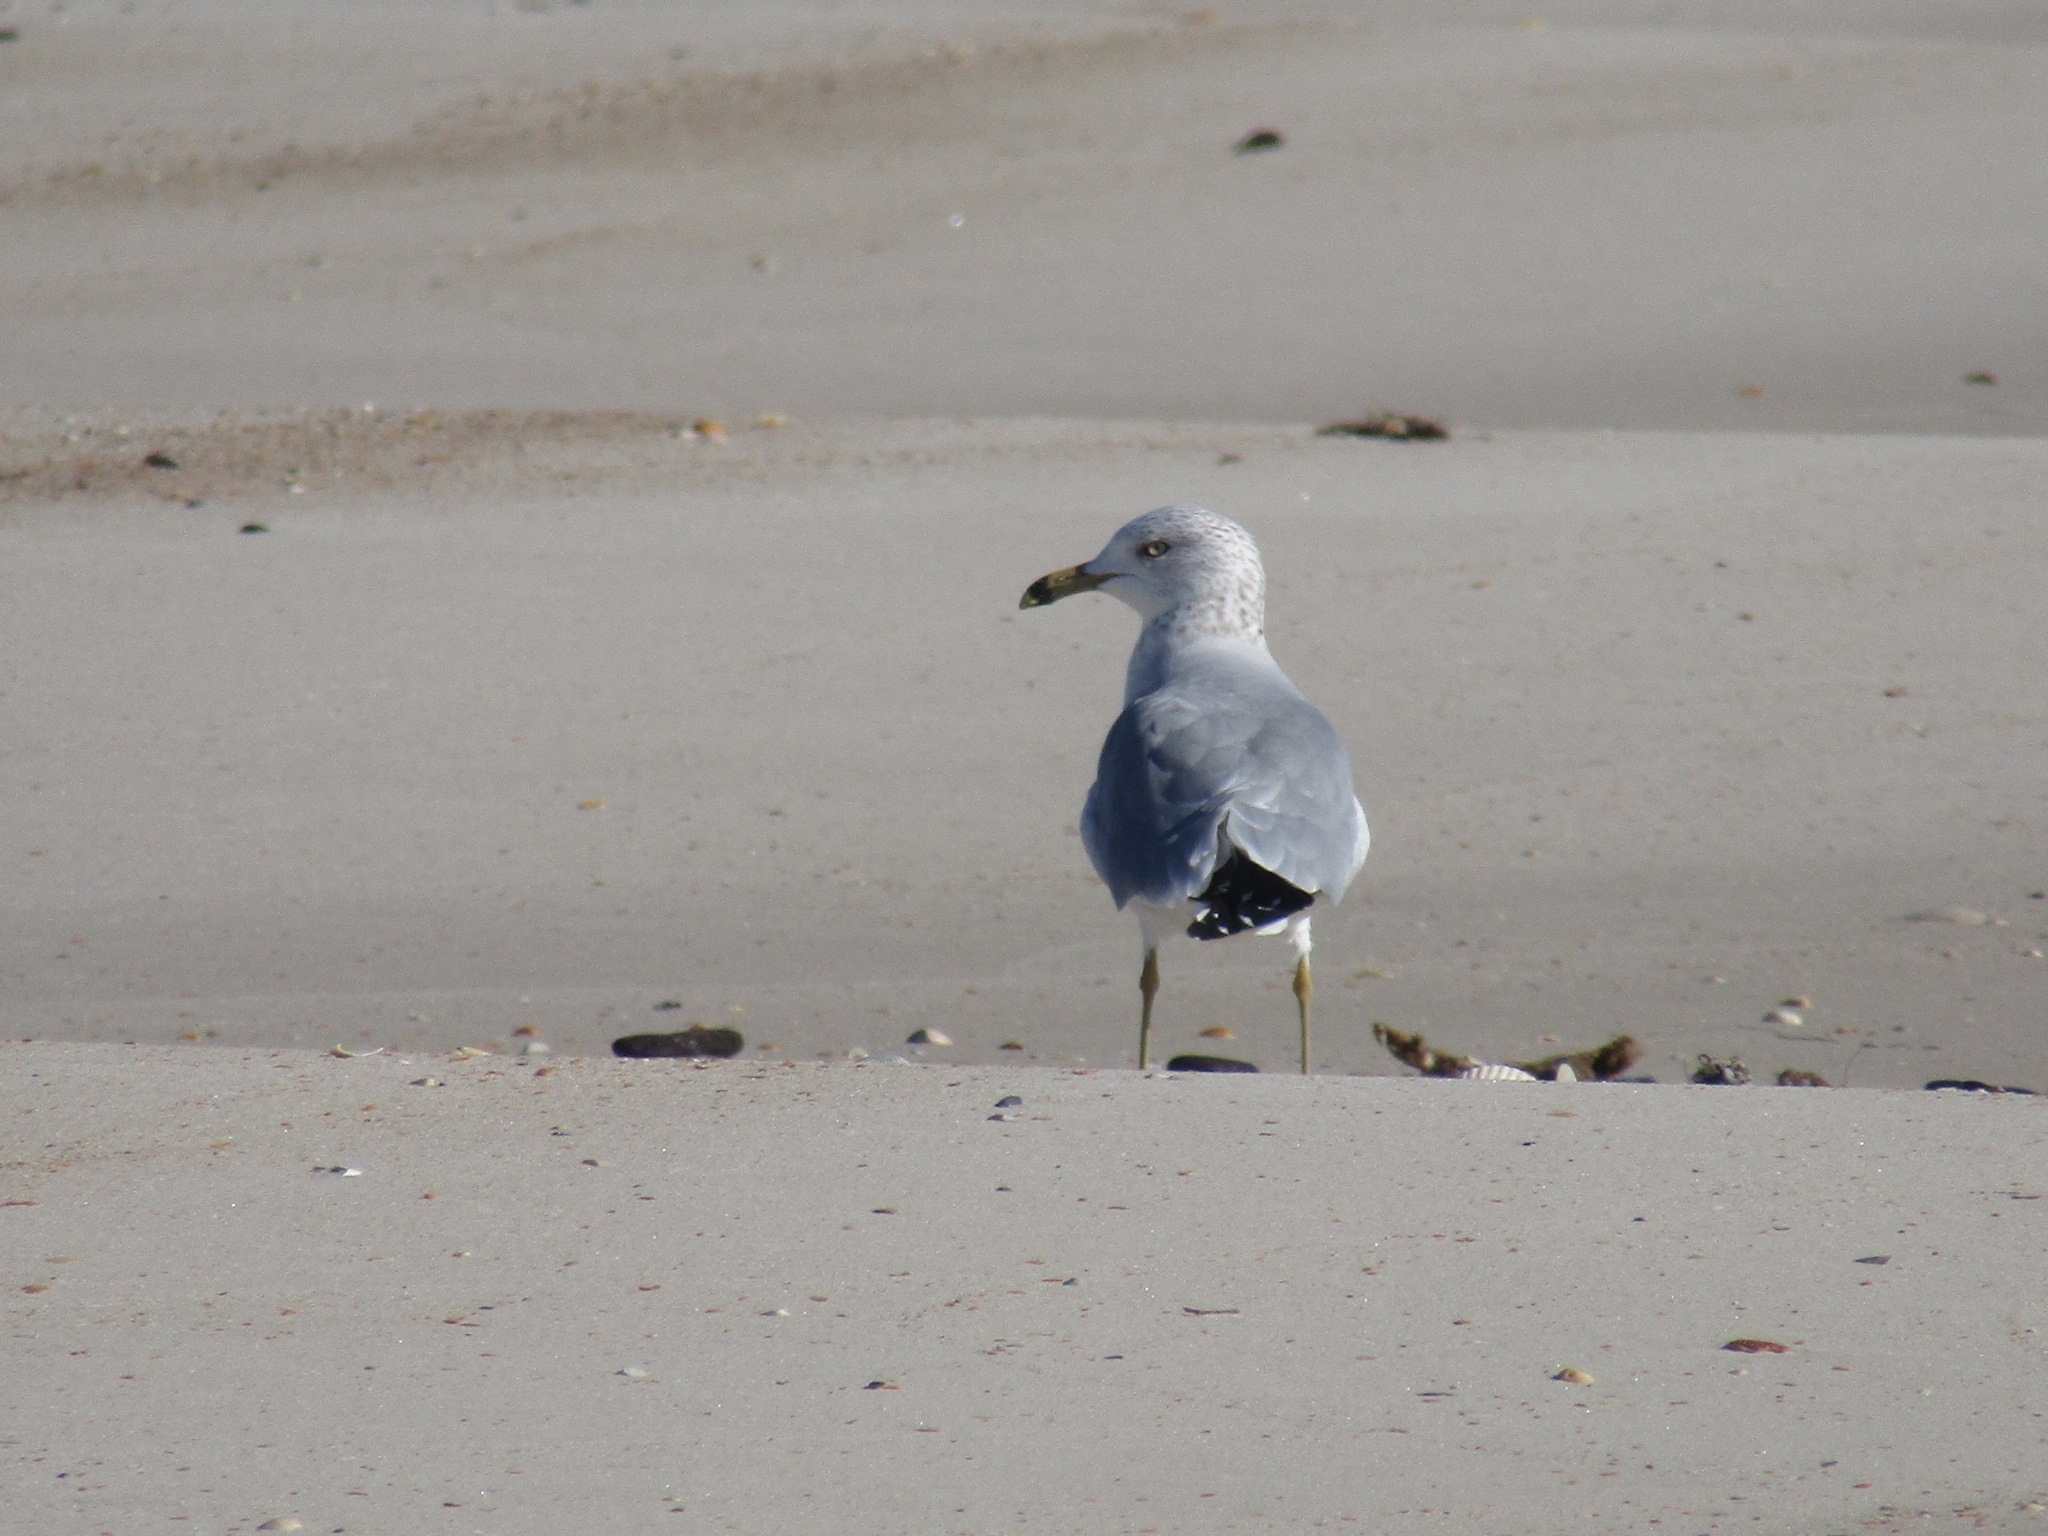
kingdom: Animalia
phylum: Chordata
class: Aves
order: Charadriiformes
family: Laridae
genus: Larus
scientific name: Larus delawarensis
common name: Ring-billed gull
